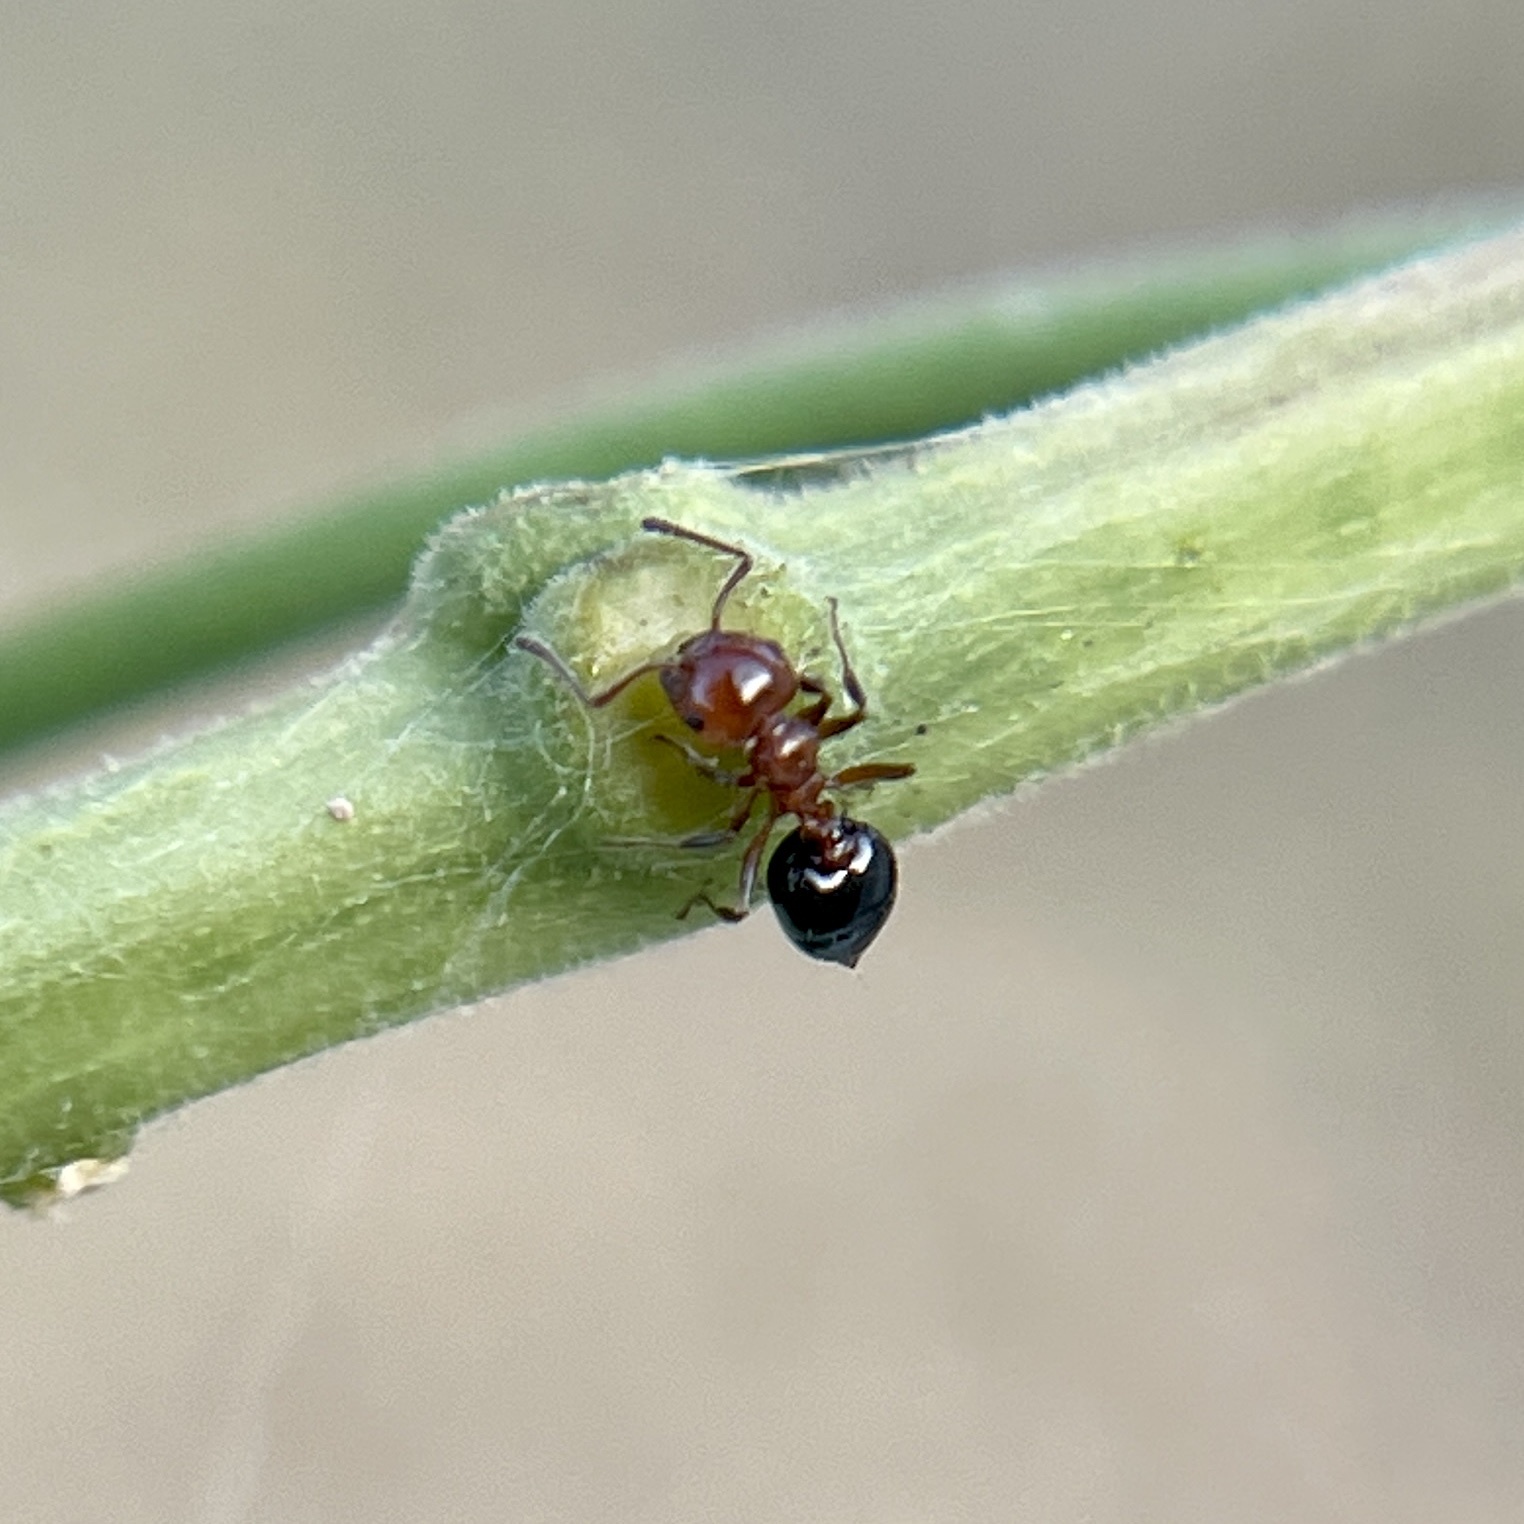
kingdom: Animalia
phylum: Arthropoda
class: Insecta
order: Hymenoptera
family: Formicidae
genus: Crematogaster
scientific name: Crematogaster laeviuscula
